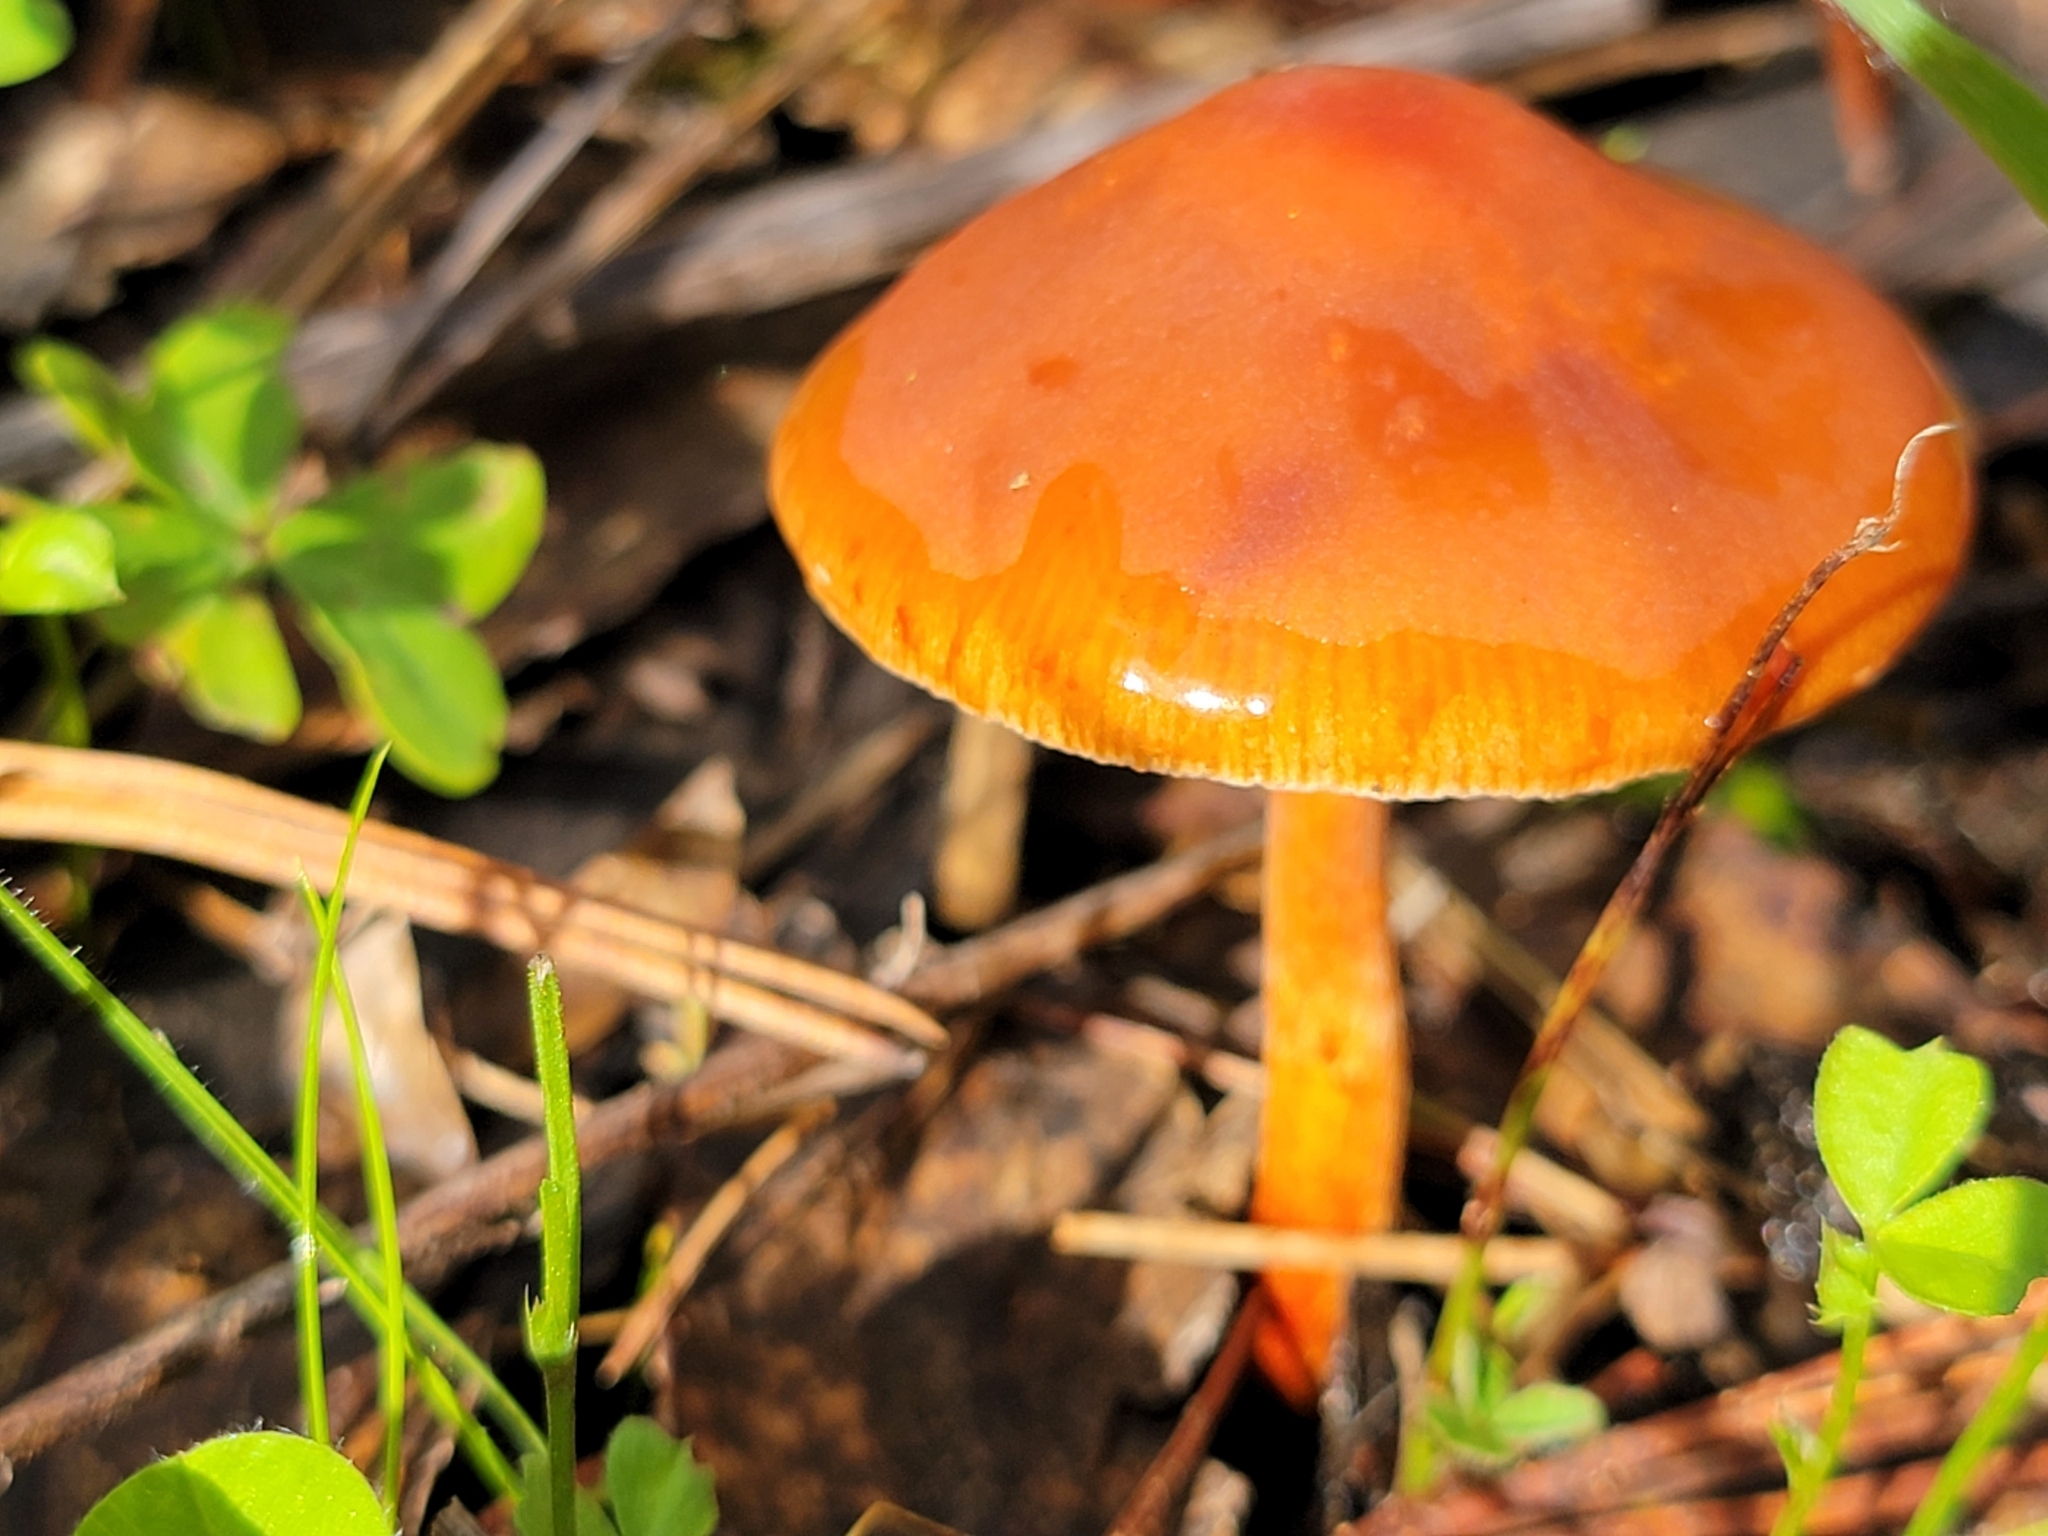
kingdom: Fungi
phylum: Basidiomycota
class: Agaricomycetes
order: Agaricales
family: Strophariaceae
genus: Leratiomyces
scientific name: Leratiomyces ceres
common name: Redlead roundhead
